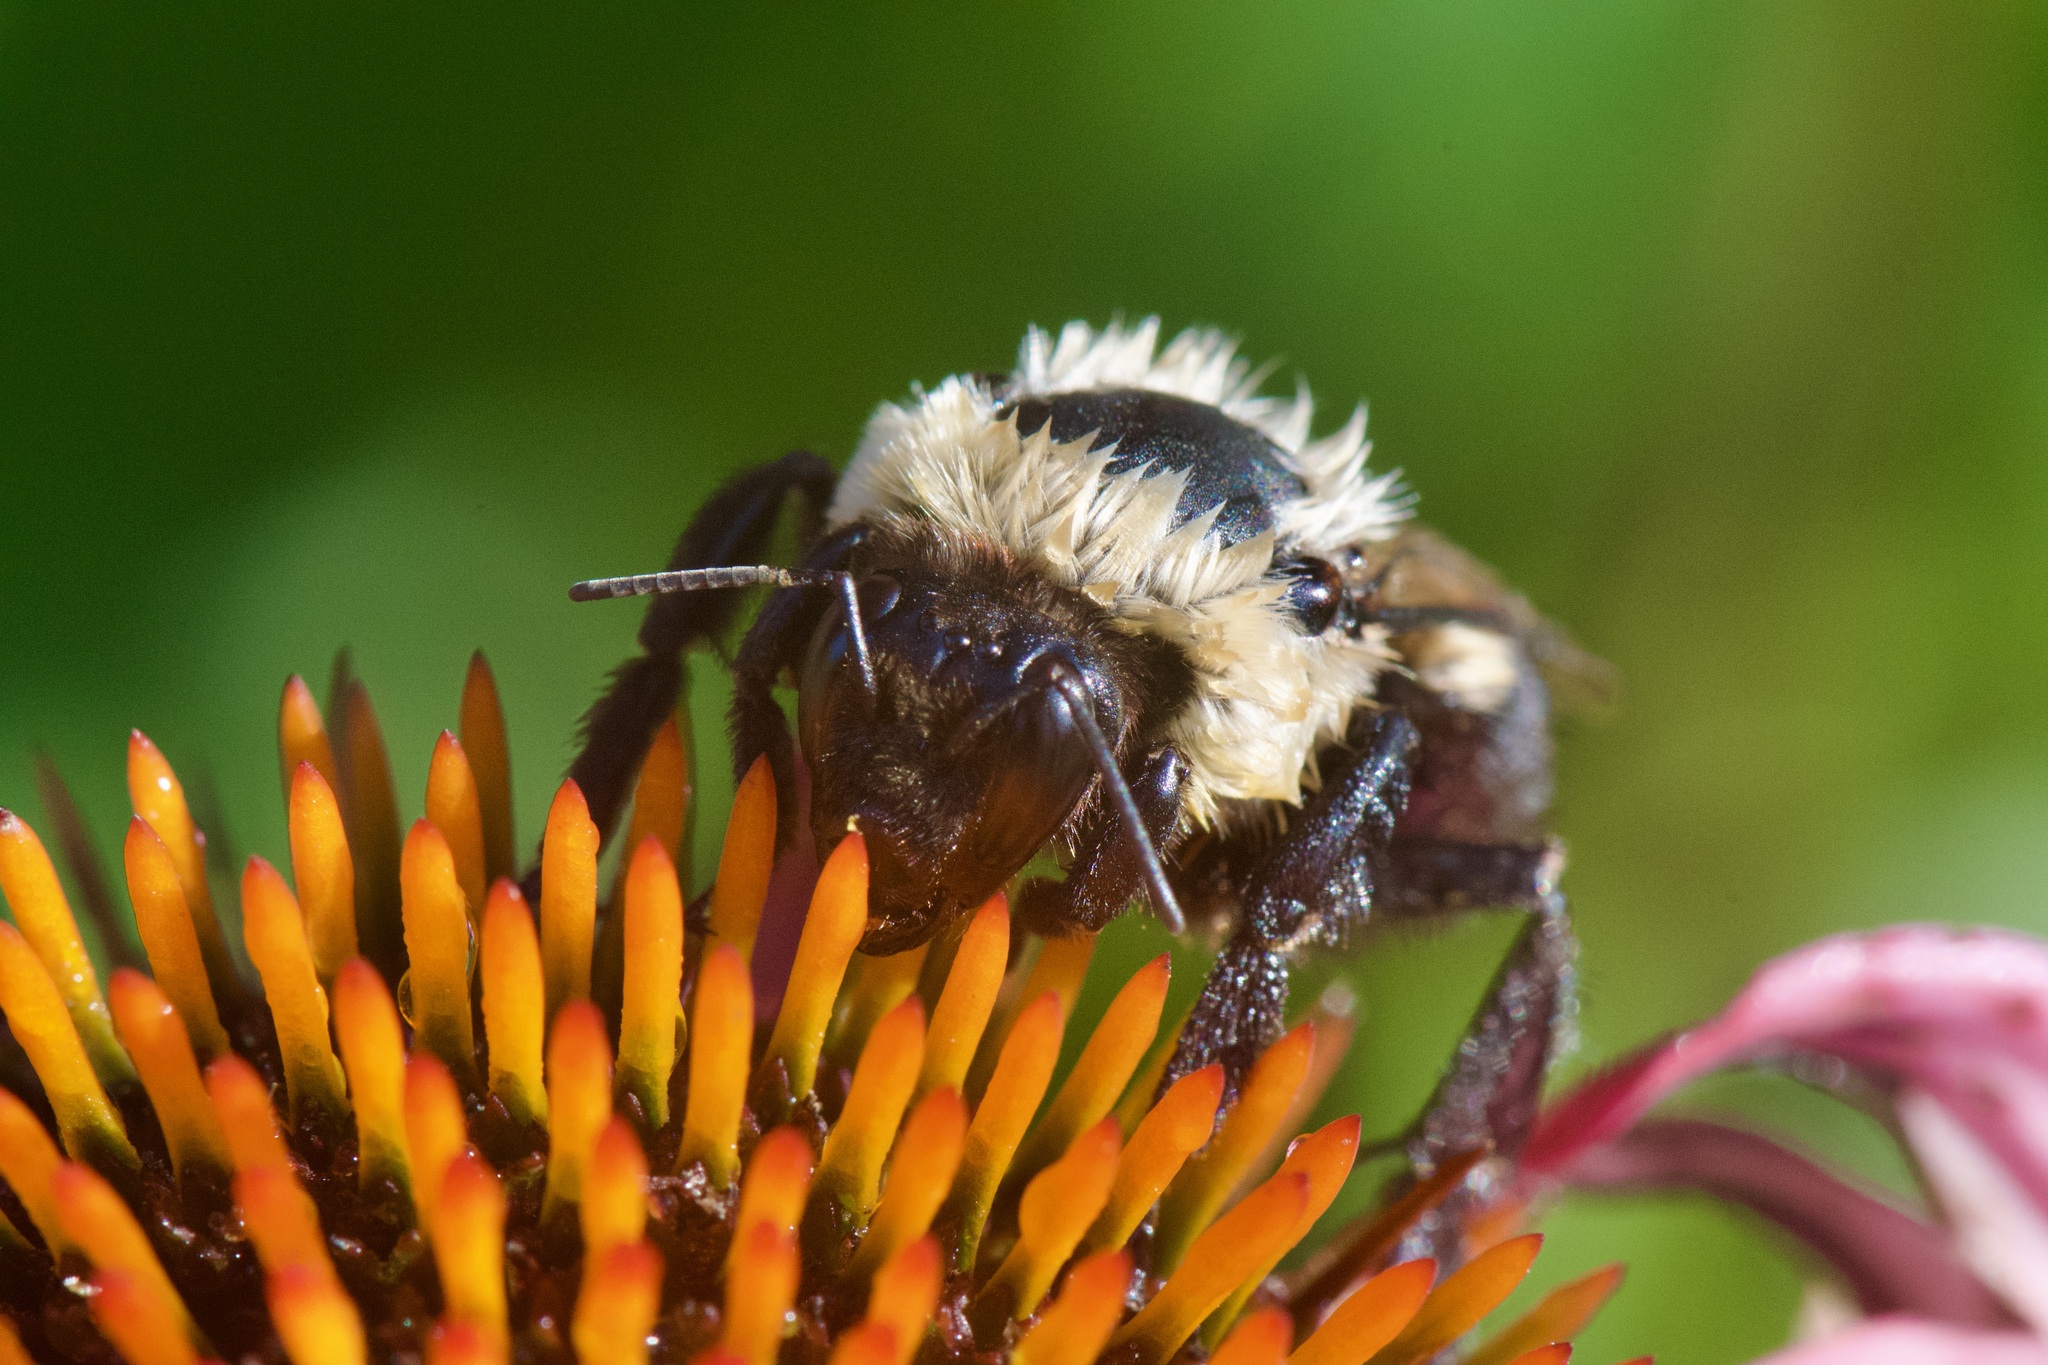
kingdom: Animalia
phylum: Arthropoda
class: Insecta
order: Hymenoptera
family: Apidae
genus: Bombus
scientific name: Bombus impatiens
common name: Common eastern bumble bee
